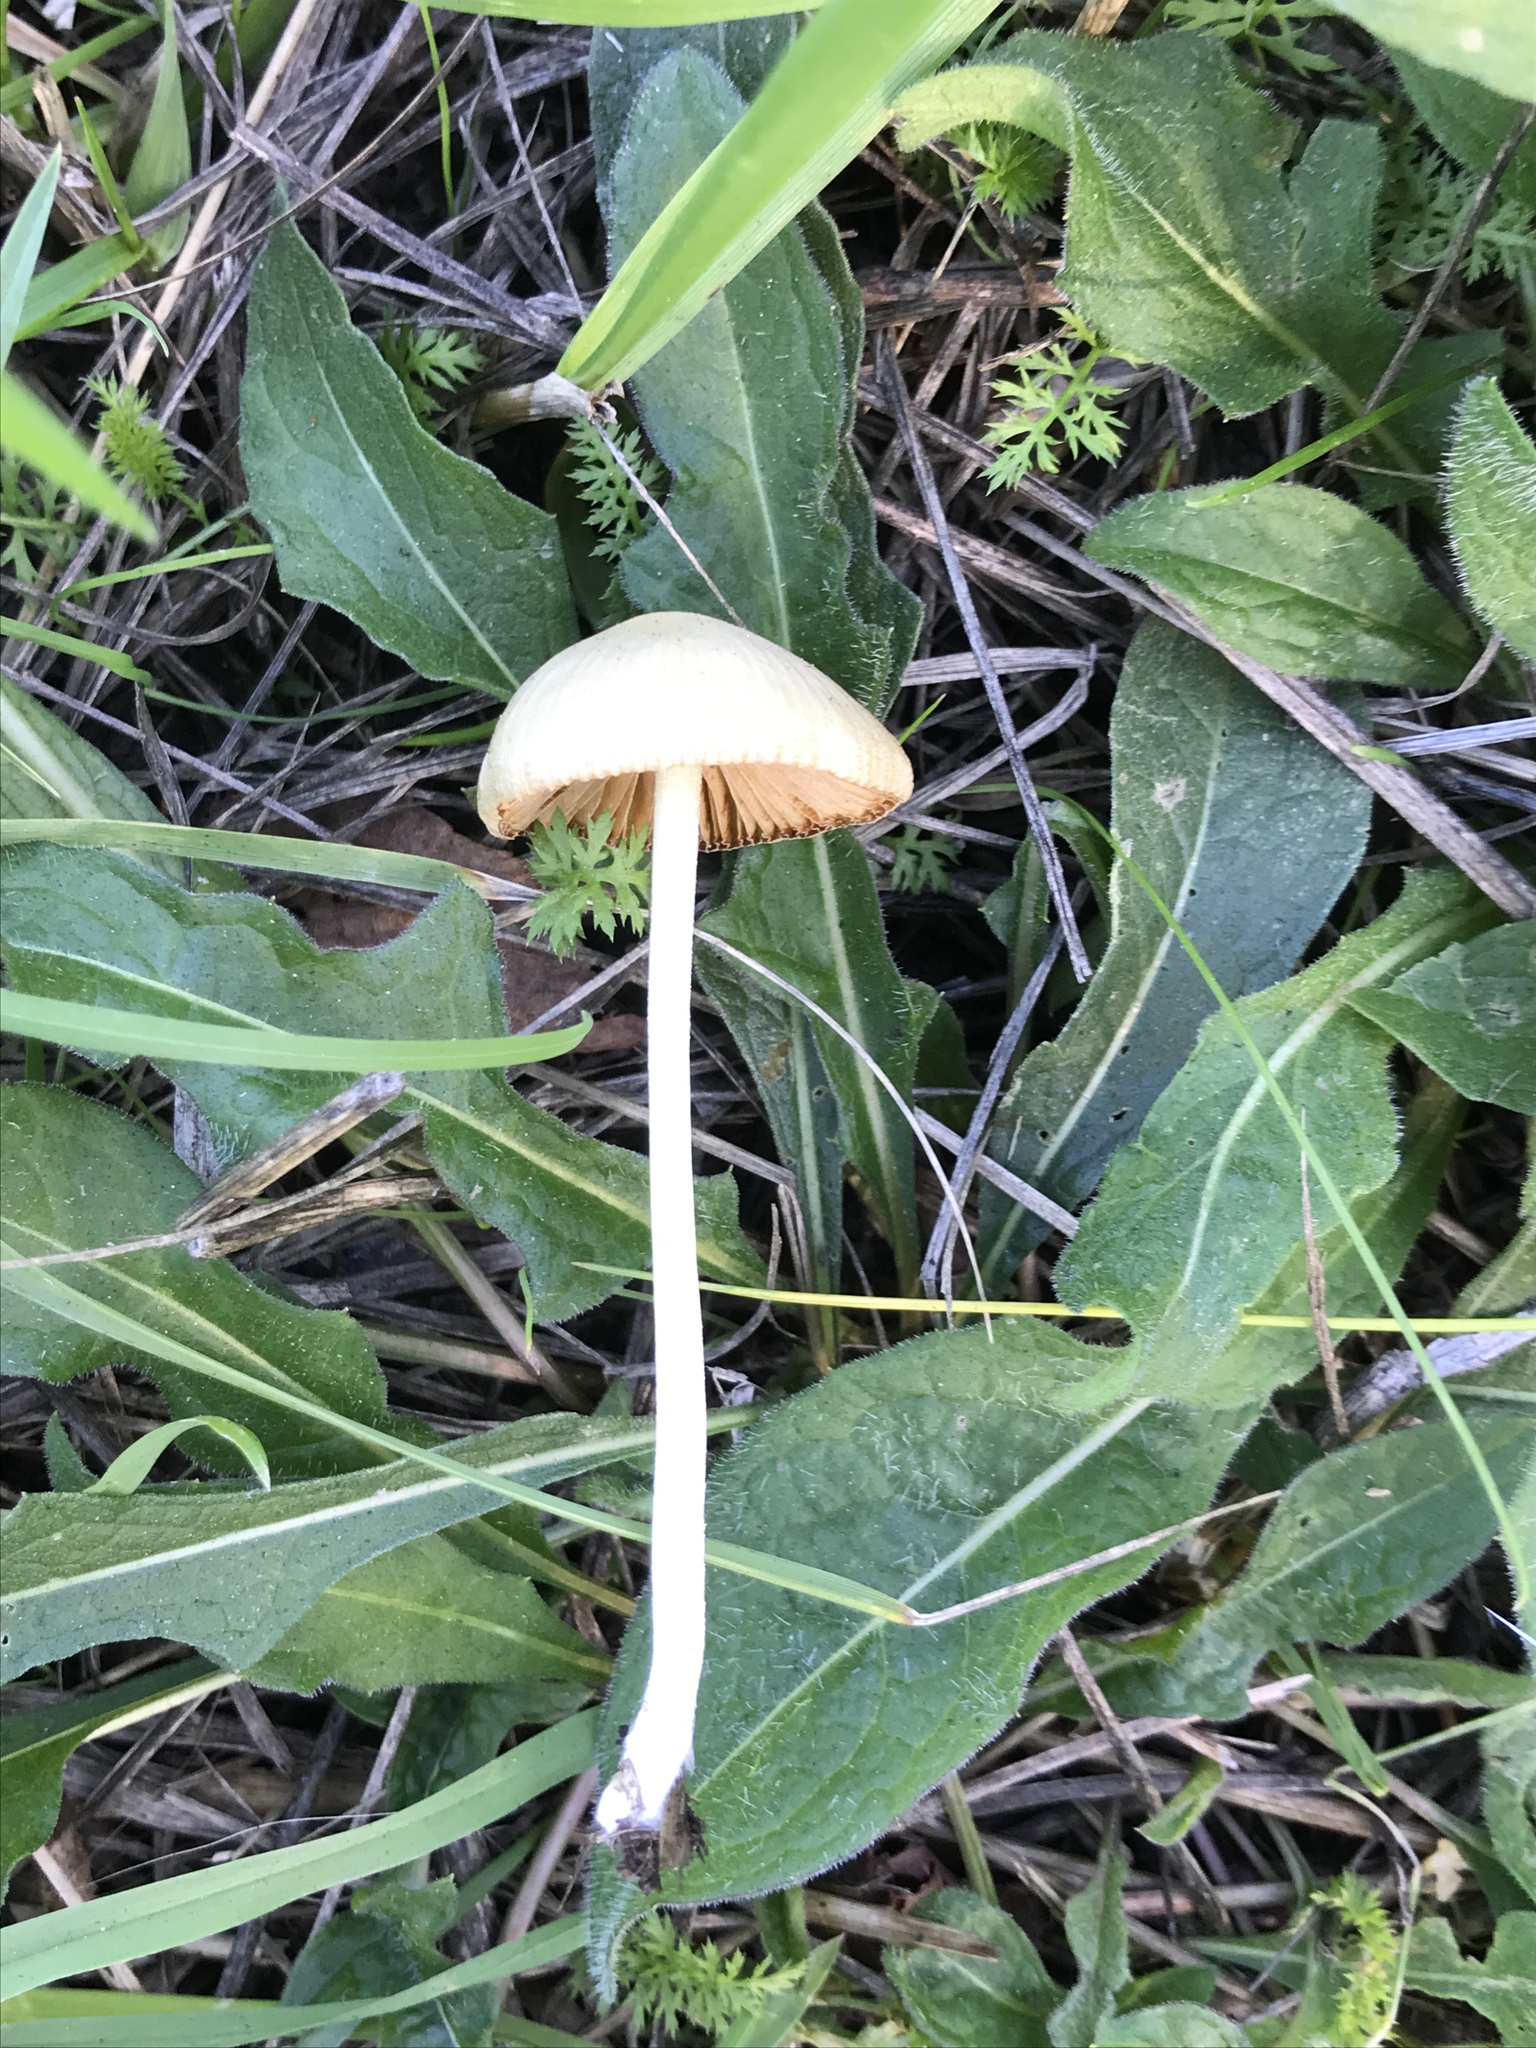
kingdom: Fungi
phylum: Basidiomycota
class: Agaricomycetes
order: Agaricales
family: Bolbitiaceae
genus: Bolbitius
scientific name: Bolbitius titubans
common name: Yellow fieldcap
